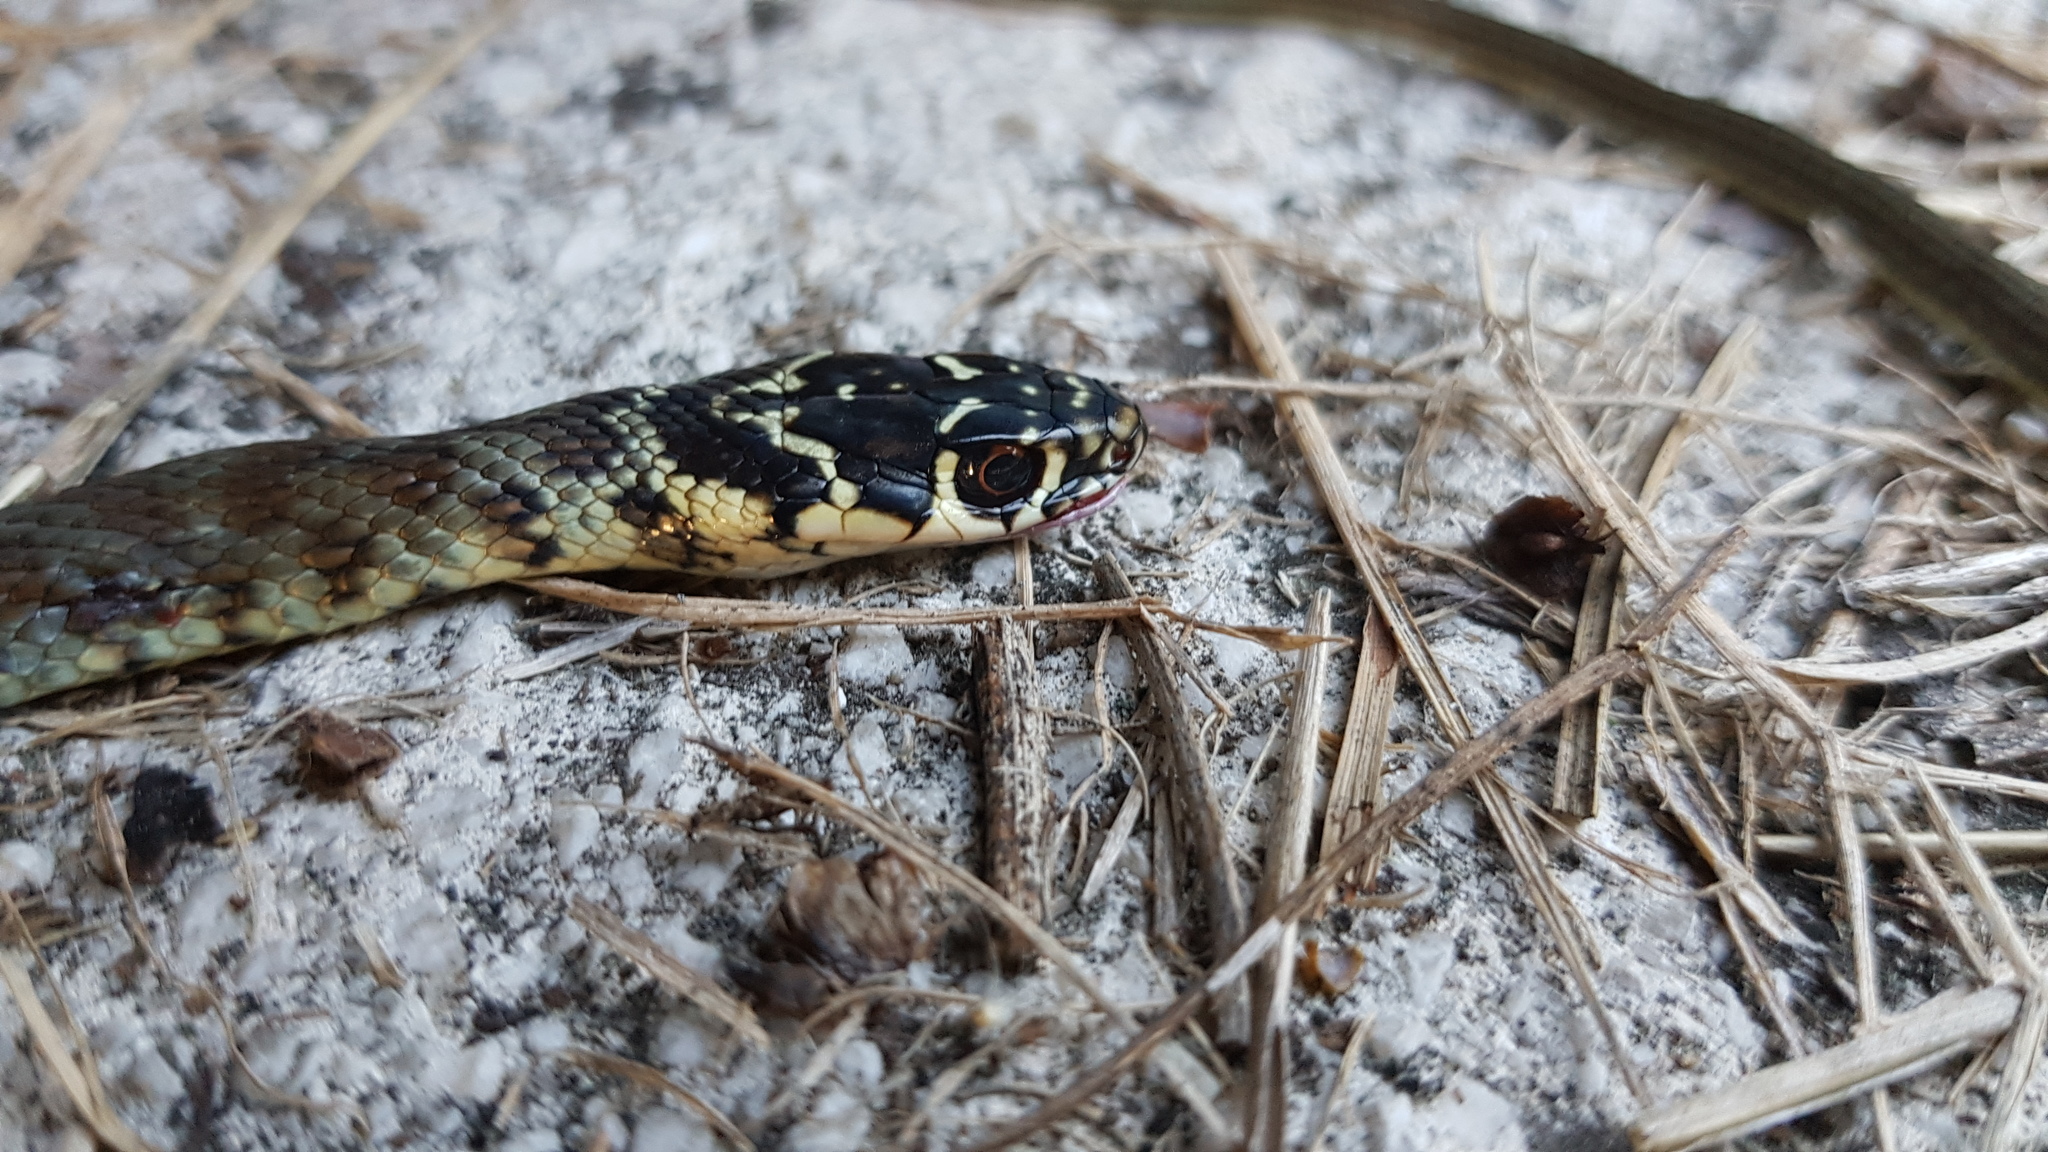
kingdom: Animalia
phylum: Chordata
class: Squamata
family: Colubridae
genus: Hierophis
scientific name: Hierophis viridiflavus
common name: Green whip snake
